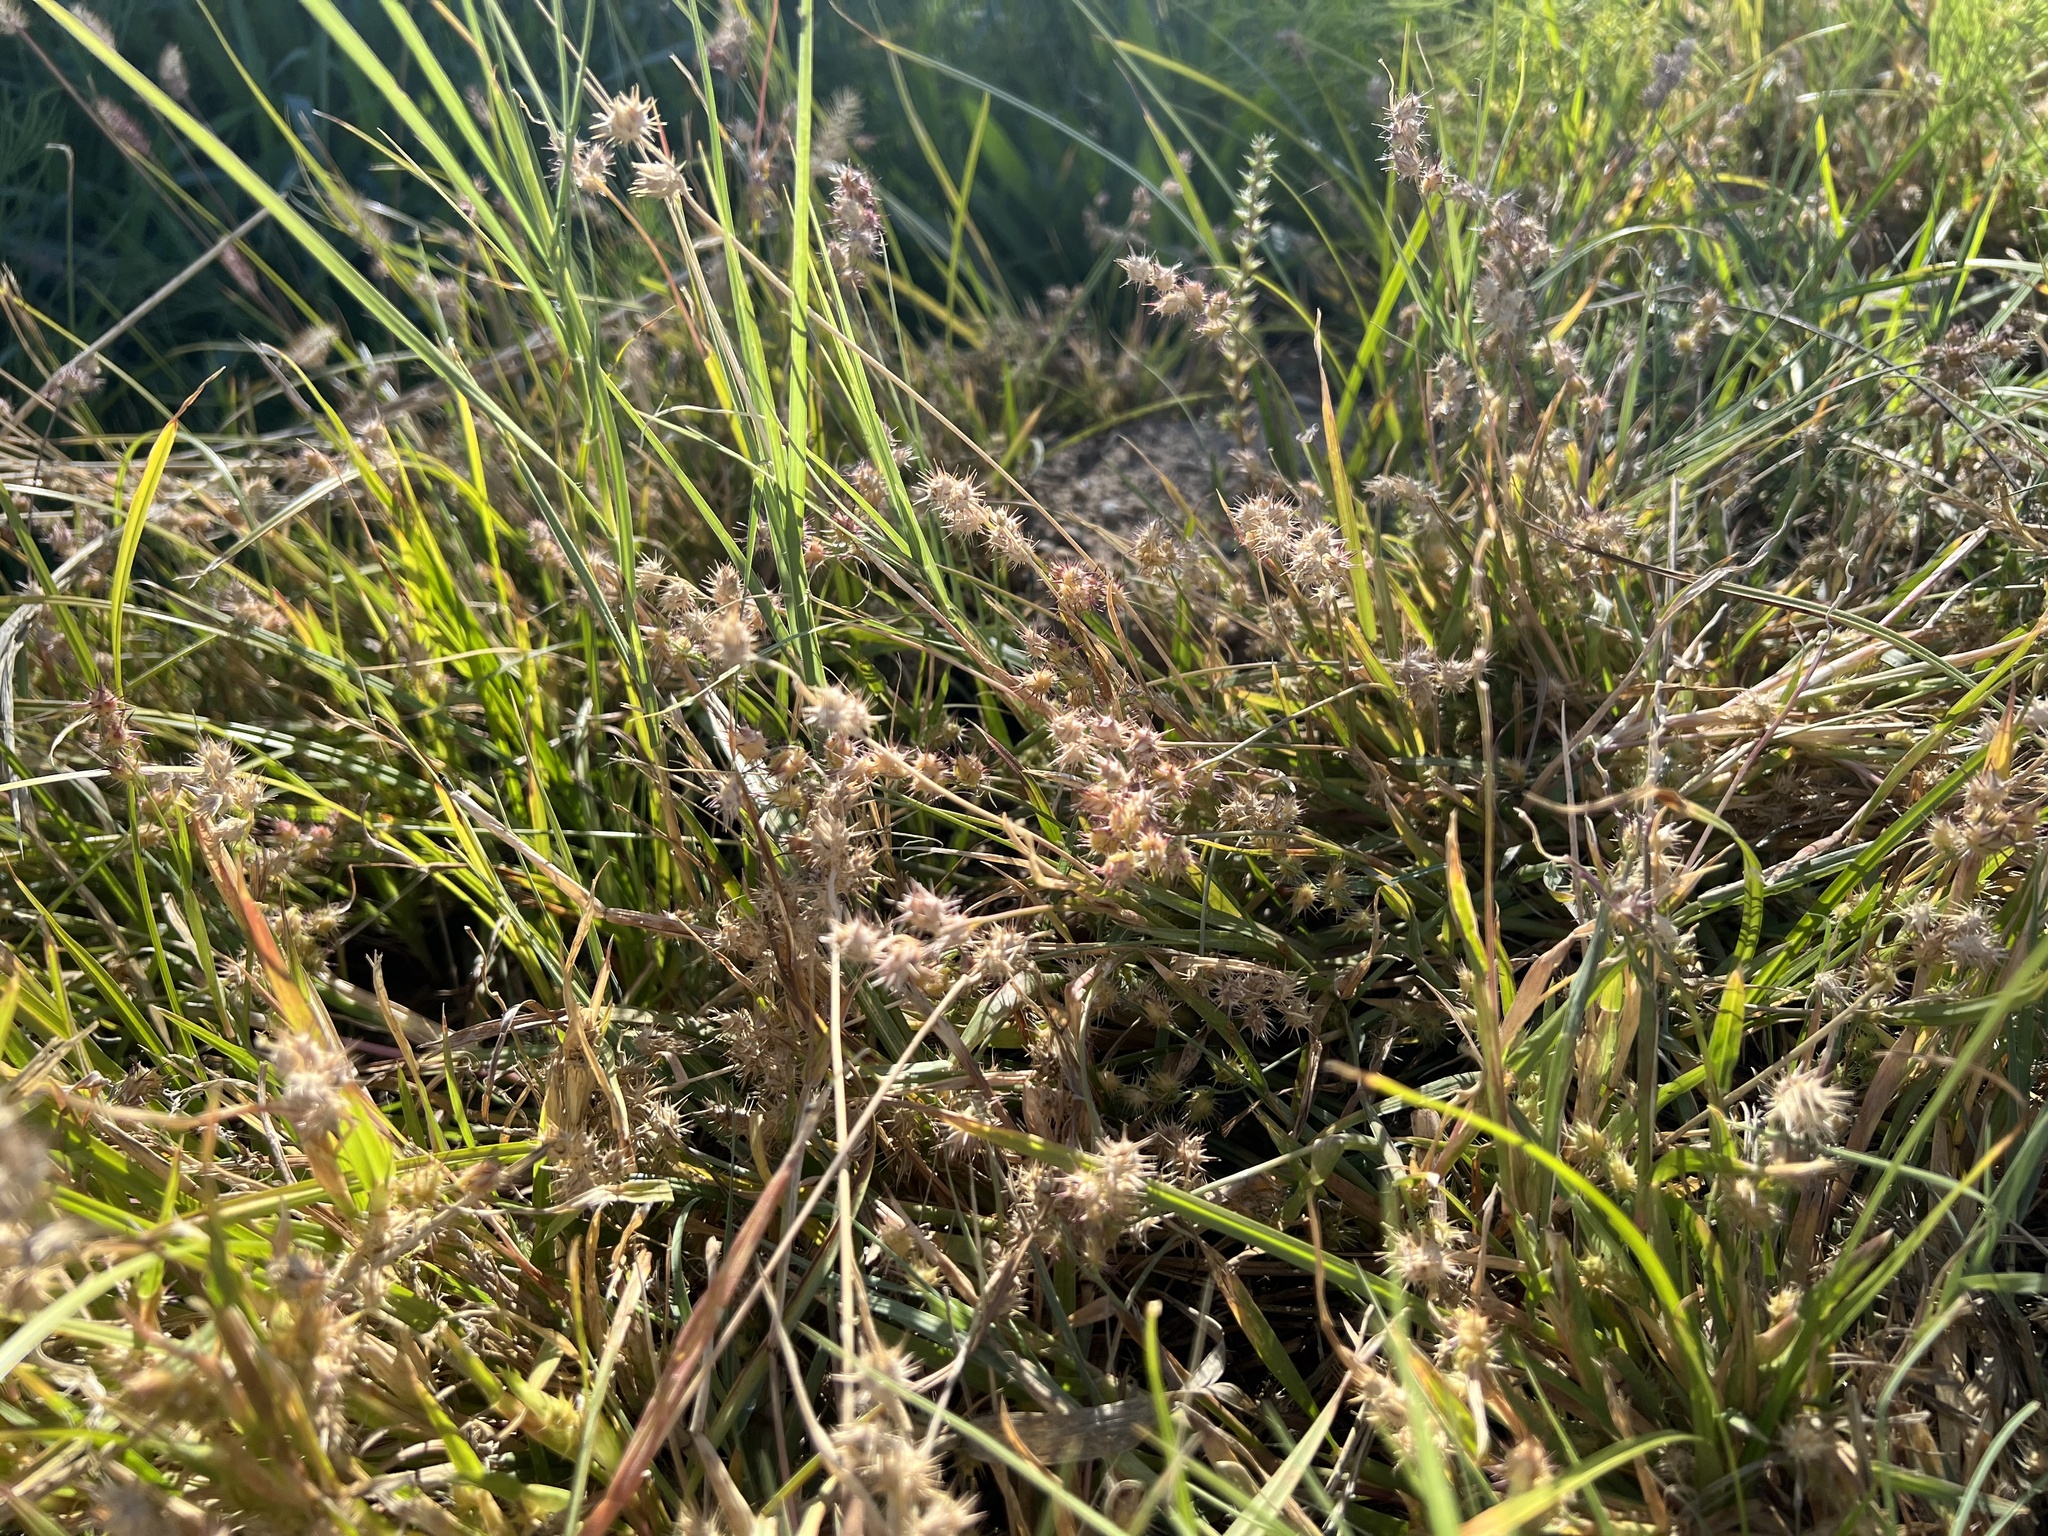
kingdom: Plantae
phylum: Tracheophyta
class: Liliopsida
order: Poales
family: Poaceae
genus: Cenchrus
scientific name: Cenchrus longispinus
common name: Mat sandbur
